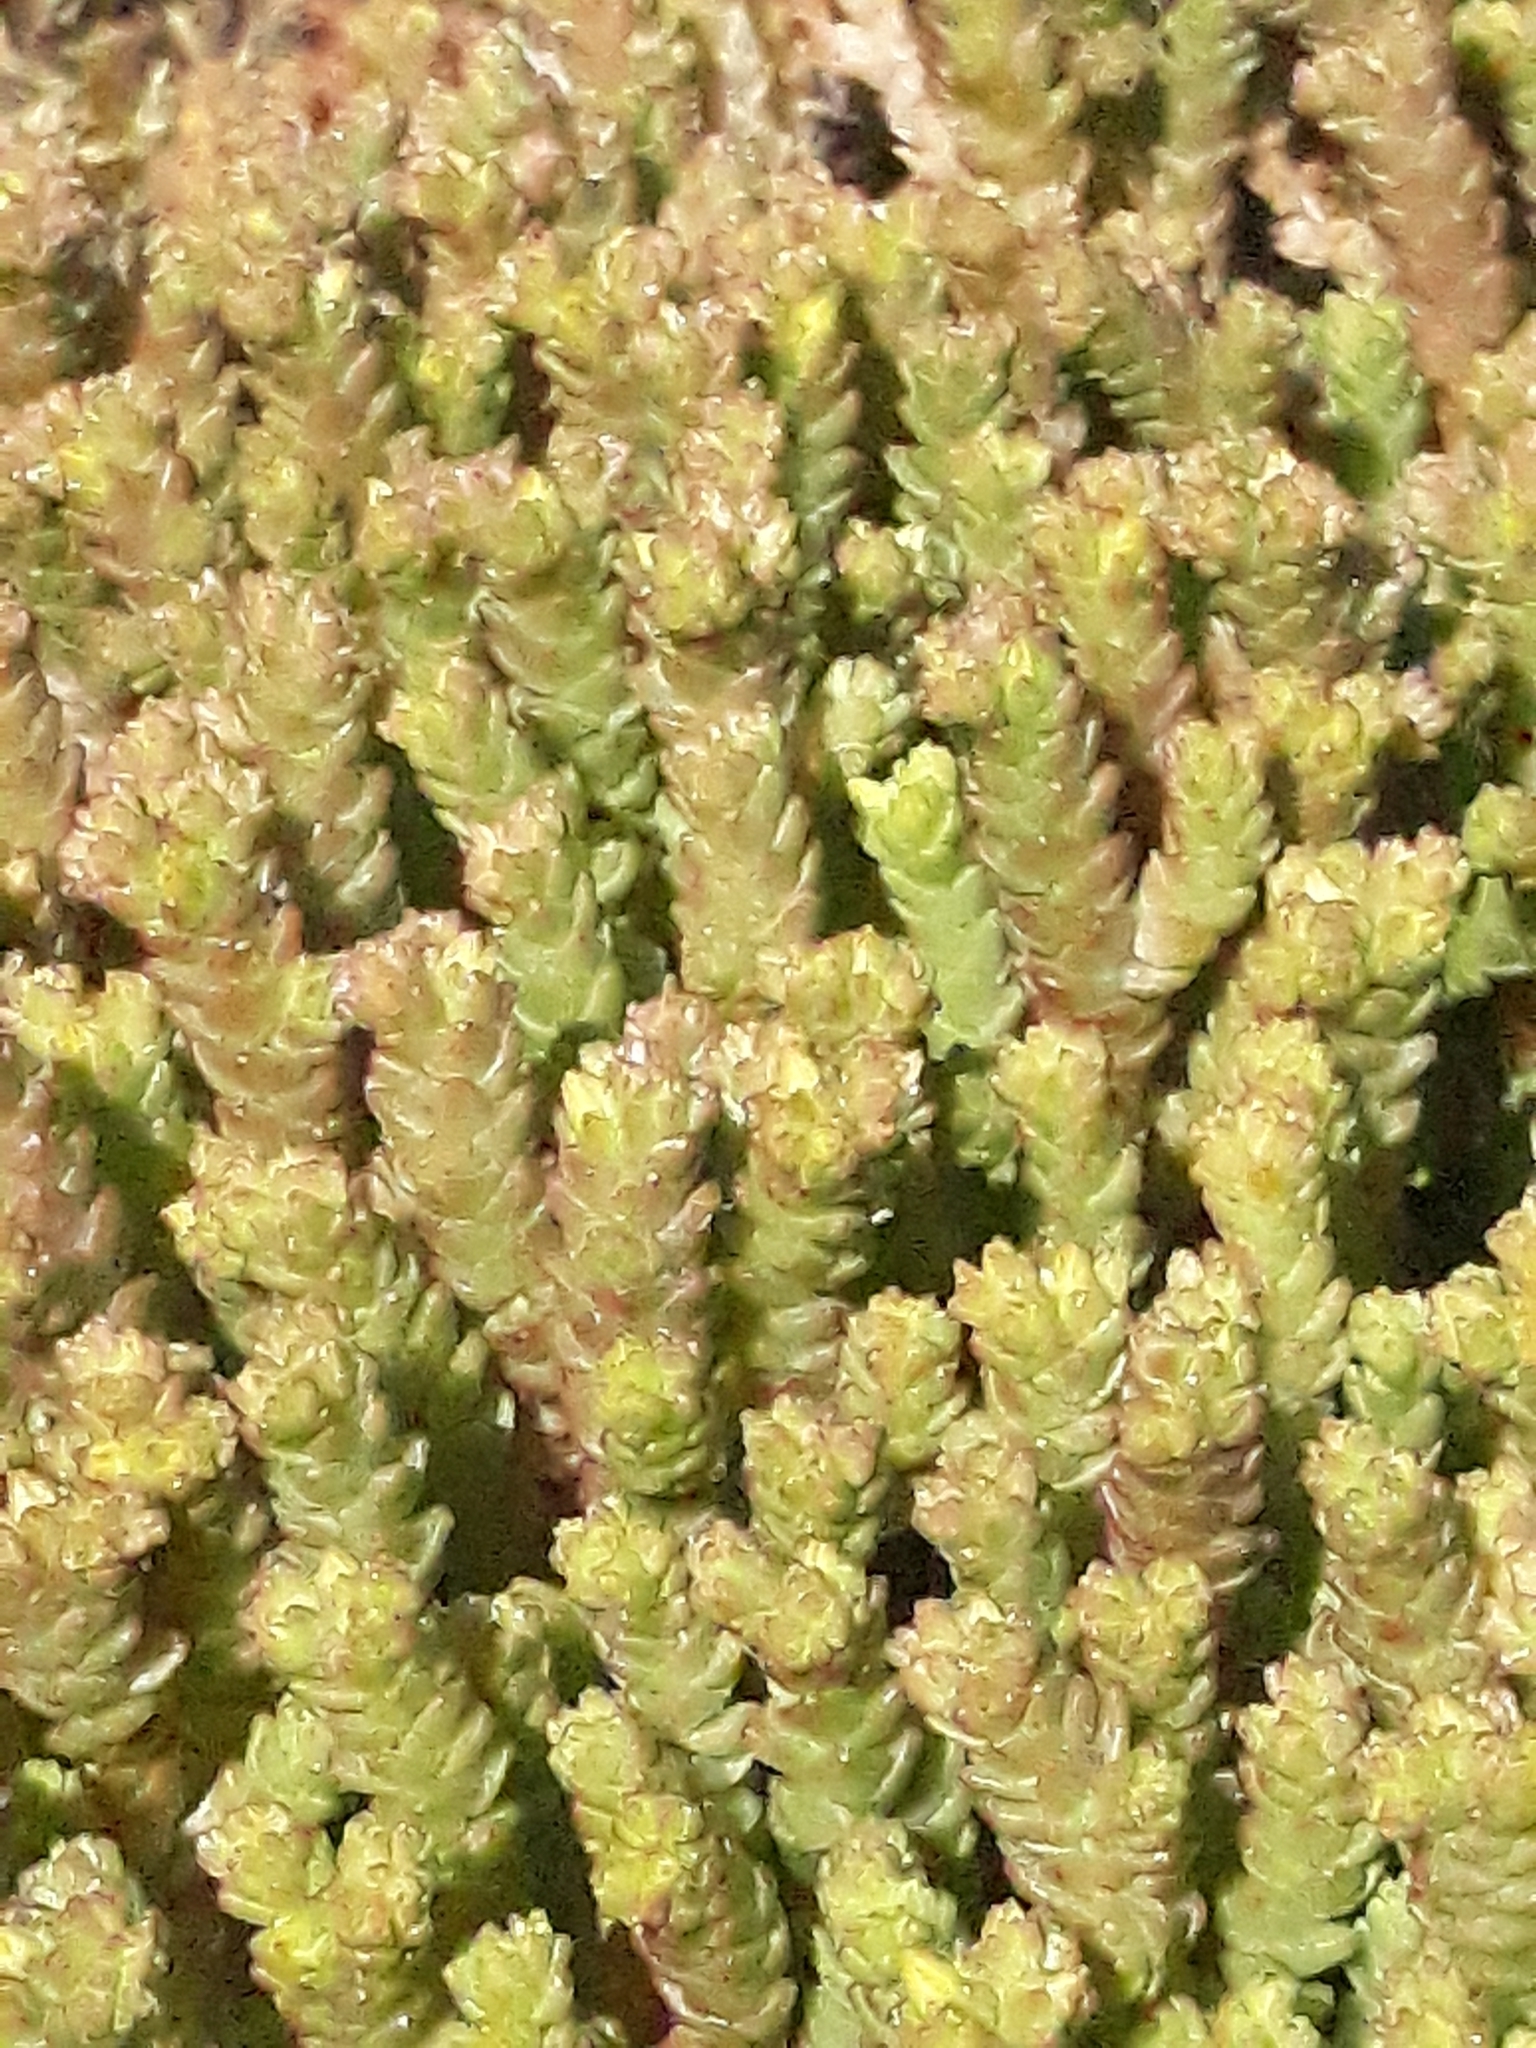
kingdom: Plantae
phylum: Tracheophyta
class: Magnoliopsida
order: Saxifragales
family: Crassulaceae
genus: Sedum
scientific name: Sedum acre
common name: Biting stonecrop
